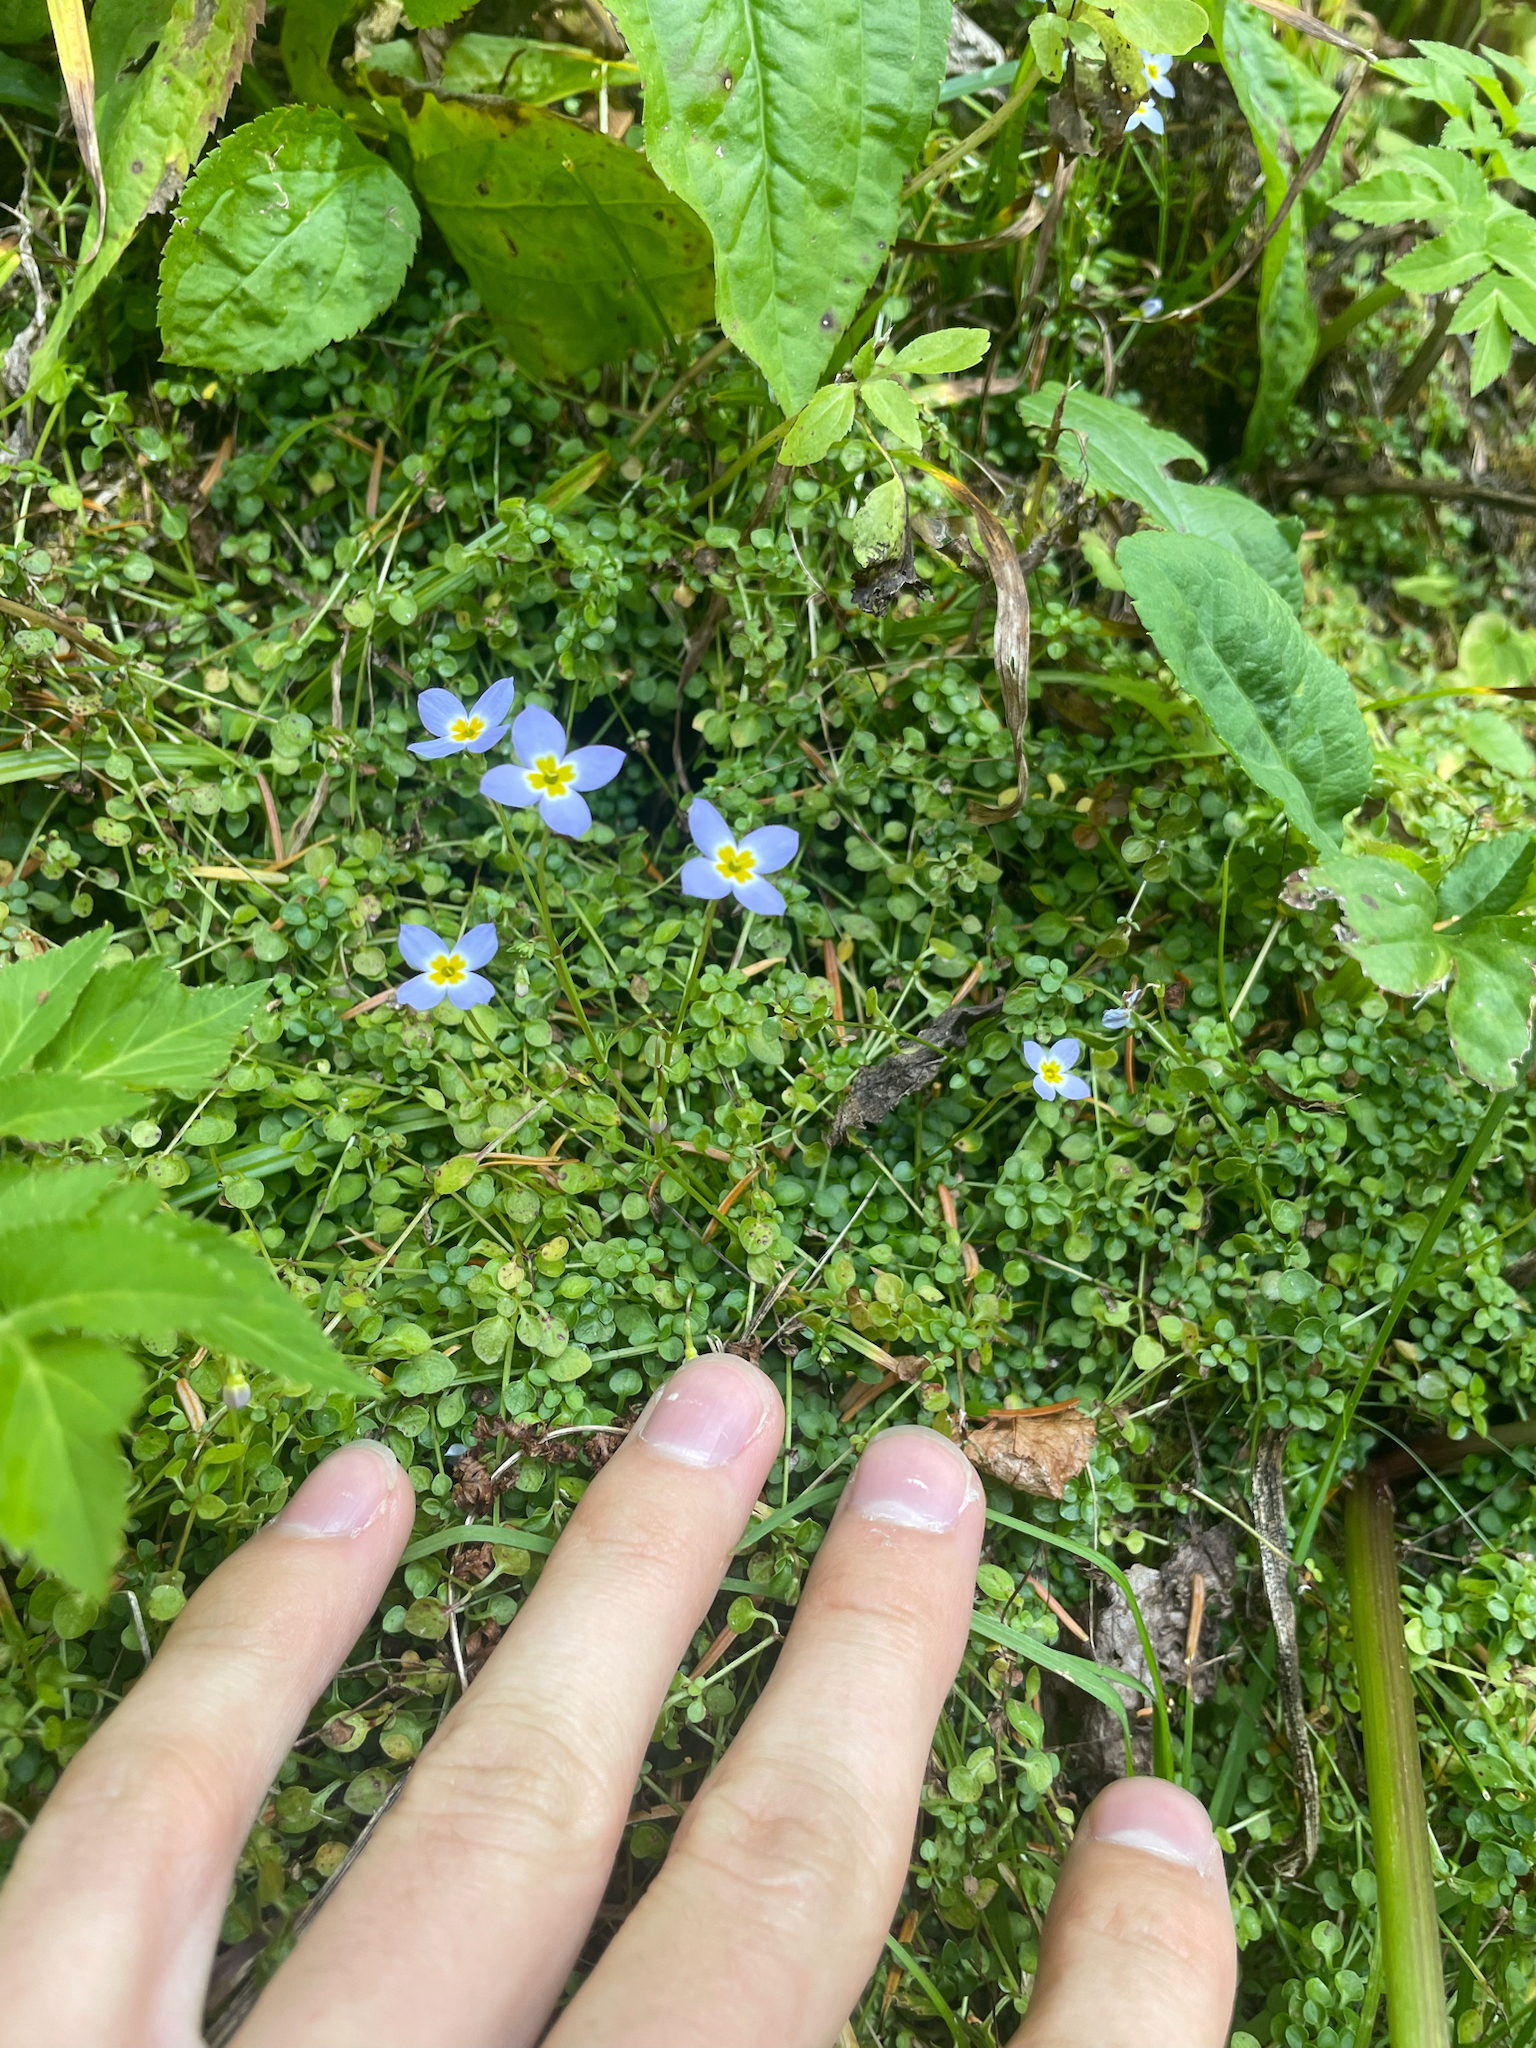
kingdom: Plantae
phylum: Tracheophyta
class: Magnoliopsida
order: Gentianales
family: Rubiaceae
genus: Houstonia
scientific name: Houstonia serpyllifolia
